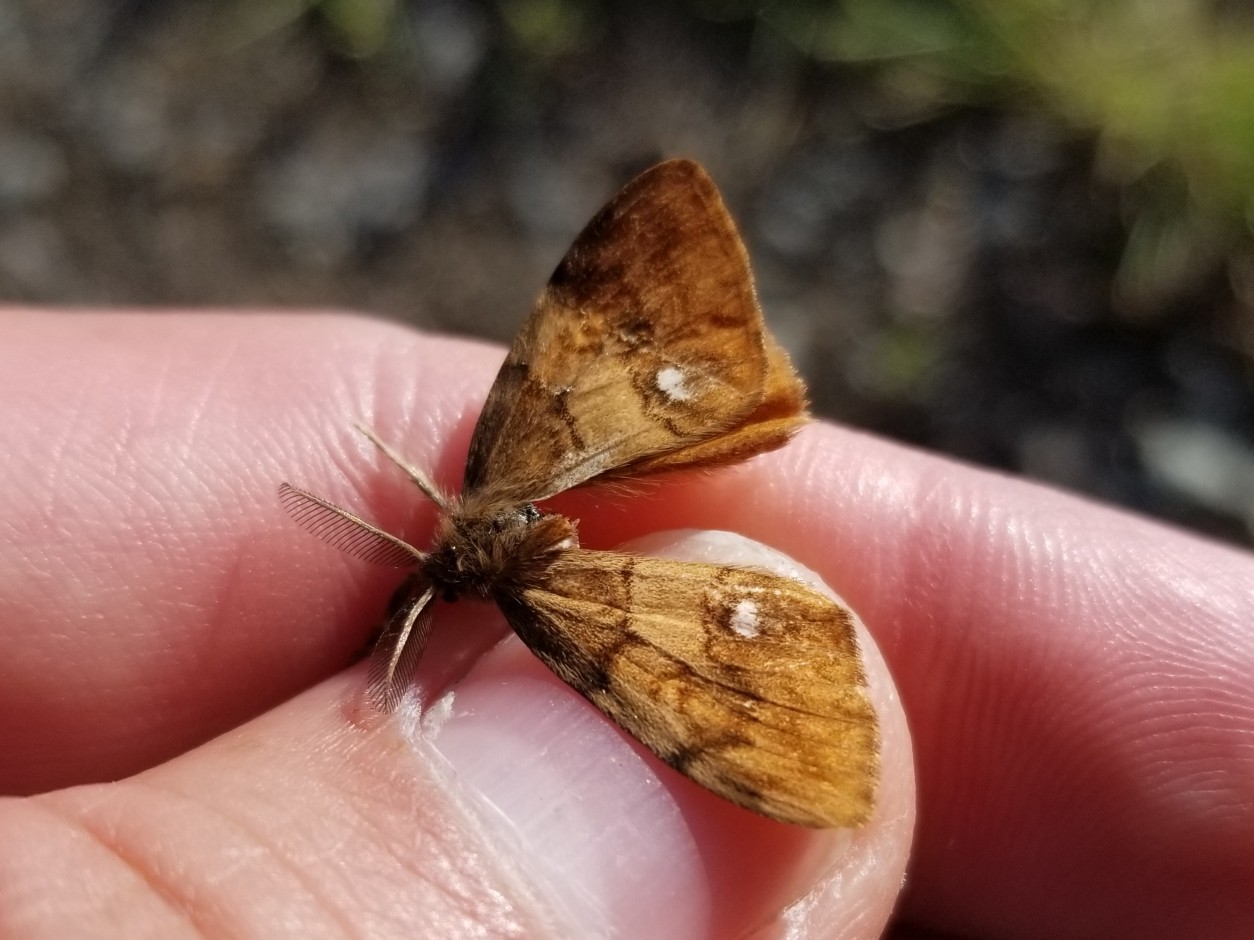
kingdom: Animalia
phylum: Arthropoda
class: Insecta
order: Lepidoptera
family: Erebidae
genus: Orgyia
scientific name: Orgyia antiqua
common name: Vapourer
